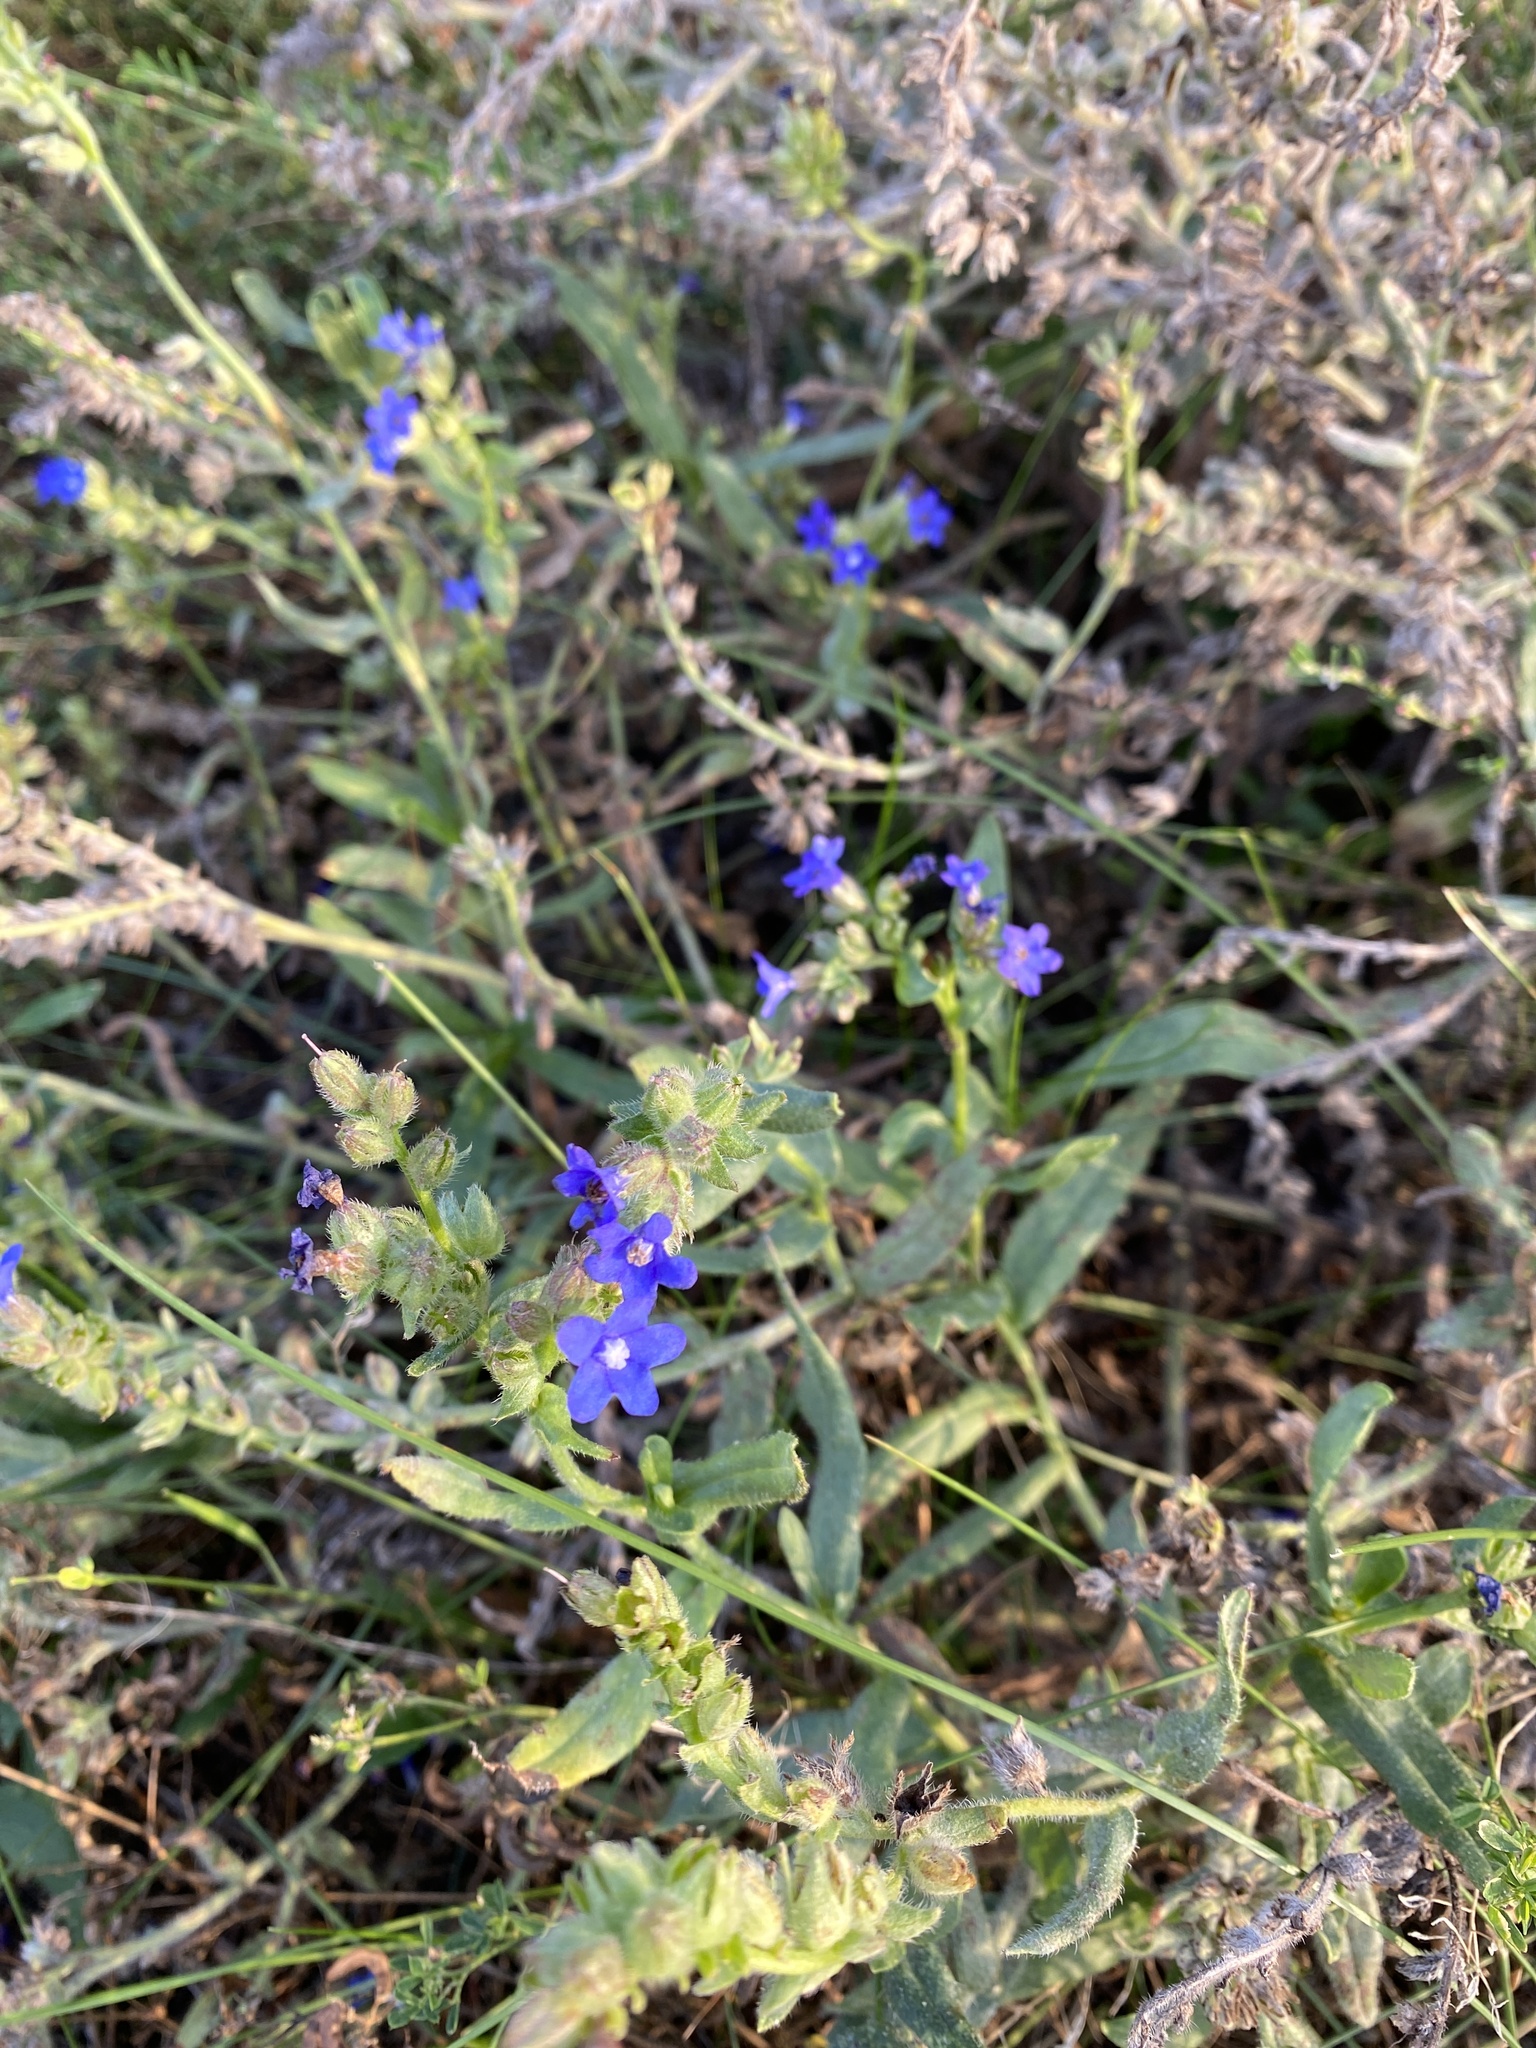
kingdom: Plantae
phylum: Tracheophyta
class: Magnoliopsida
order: Boraginales
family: Boraginaceae
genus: Anchusa
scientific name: Anchusa officinalis
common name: Alkanet
